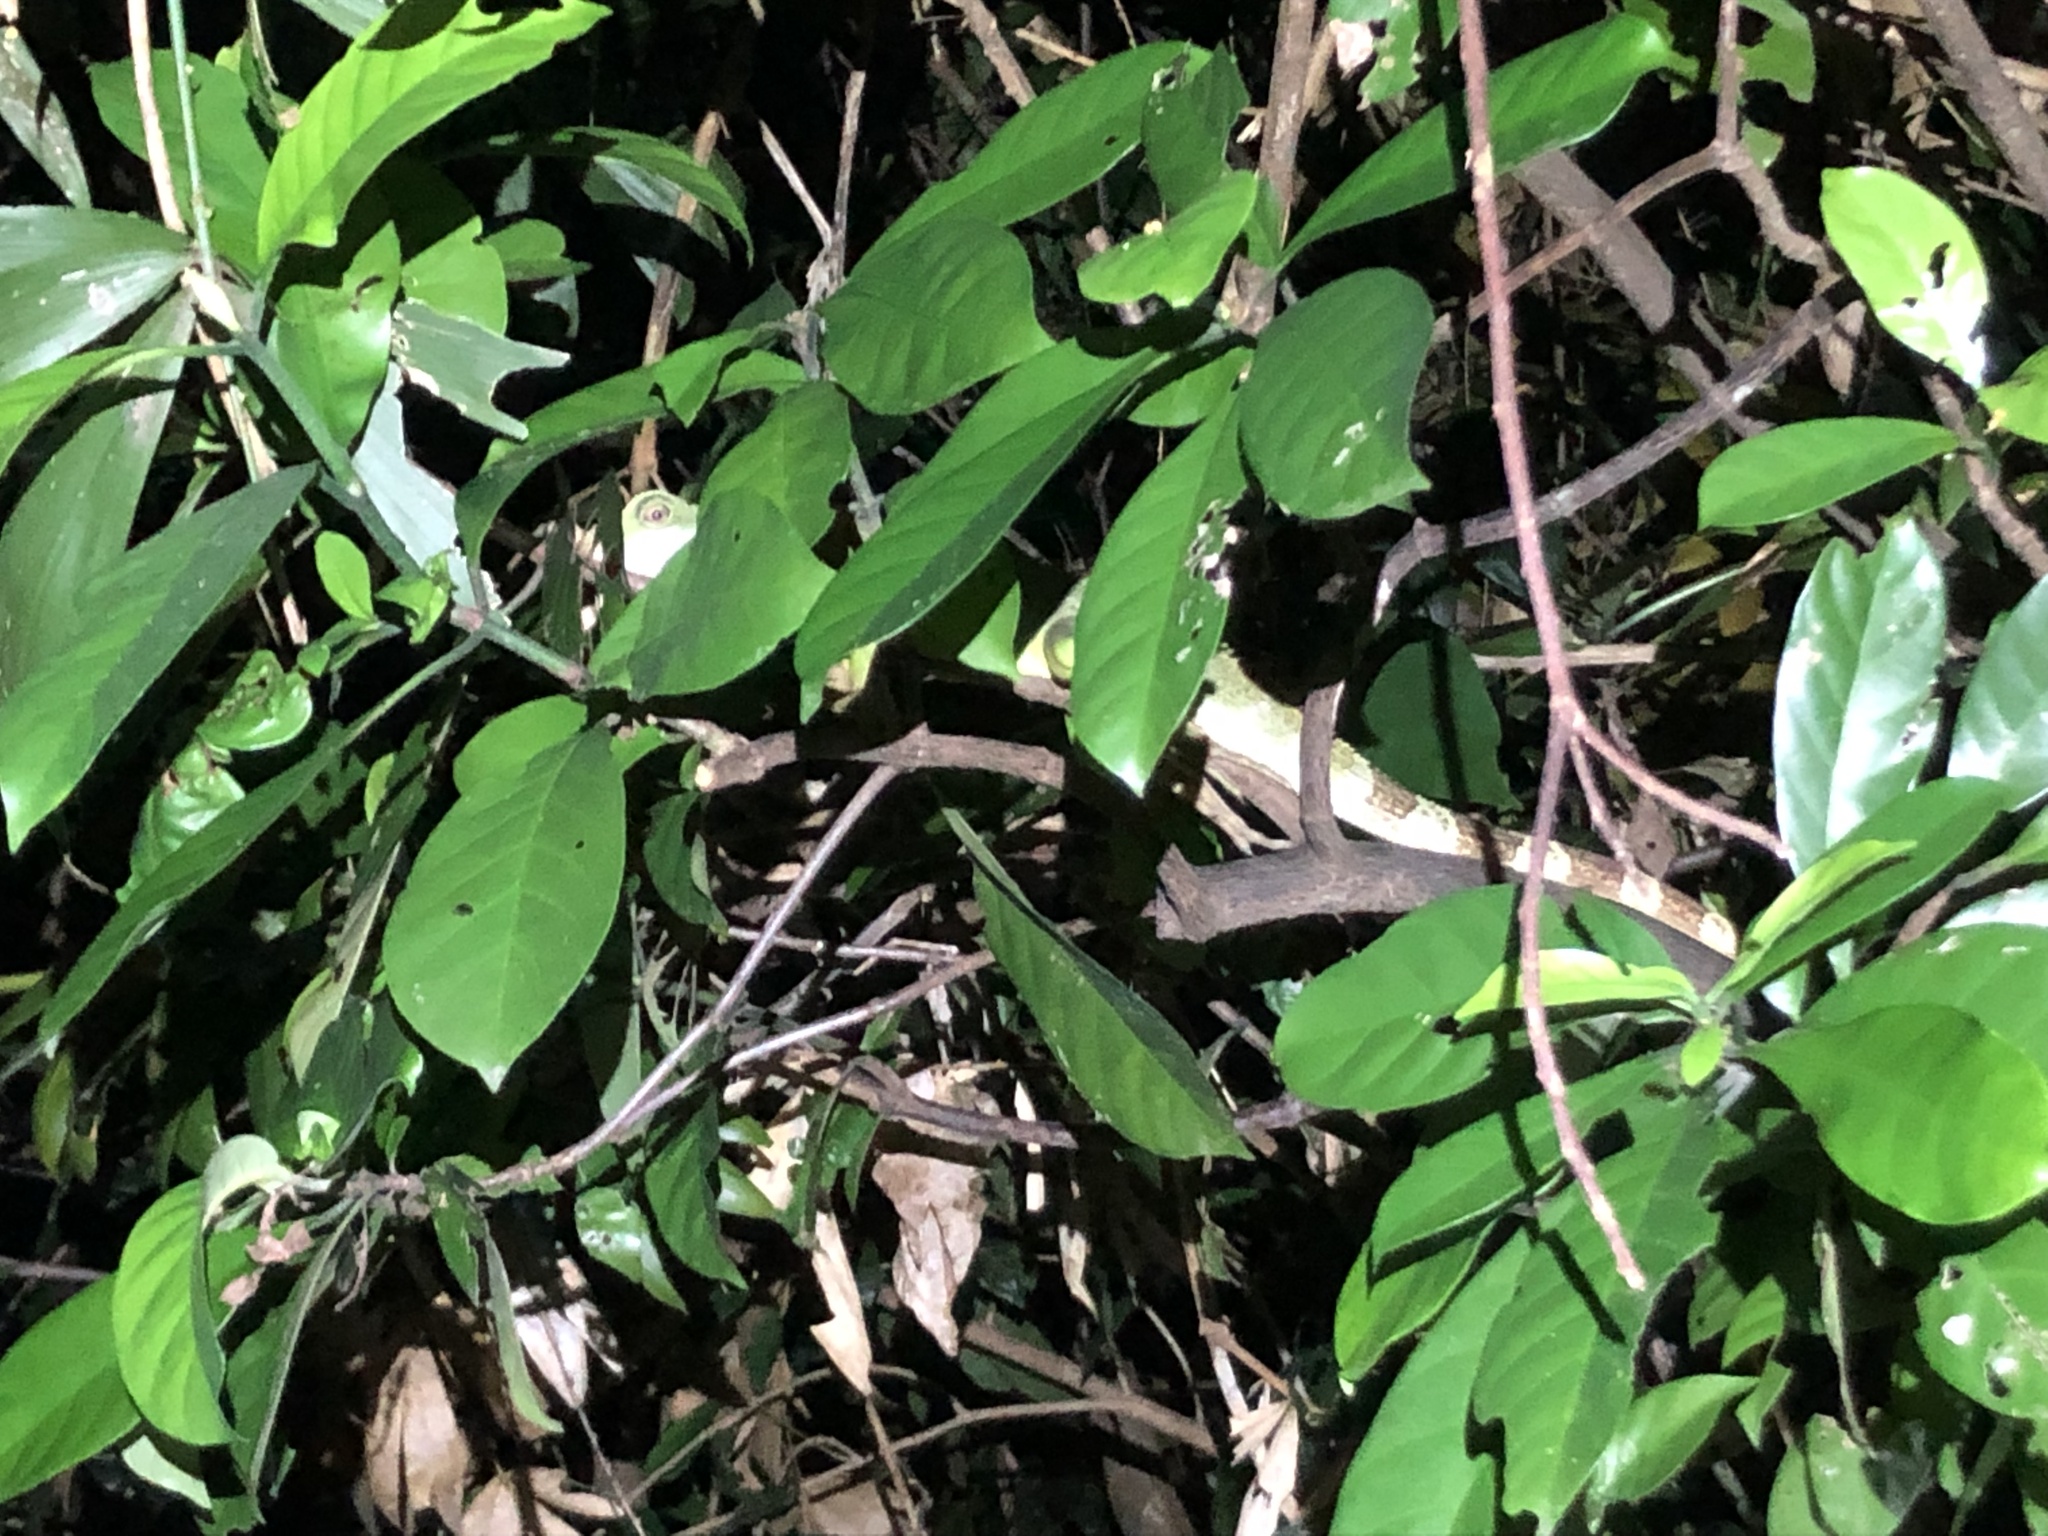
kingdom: Animalia
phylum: Chordata
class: Squamata
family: Agamidae
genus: Physignathus
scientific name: Physignathus cocincinus
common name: Asian water dragon
